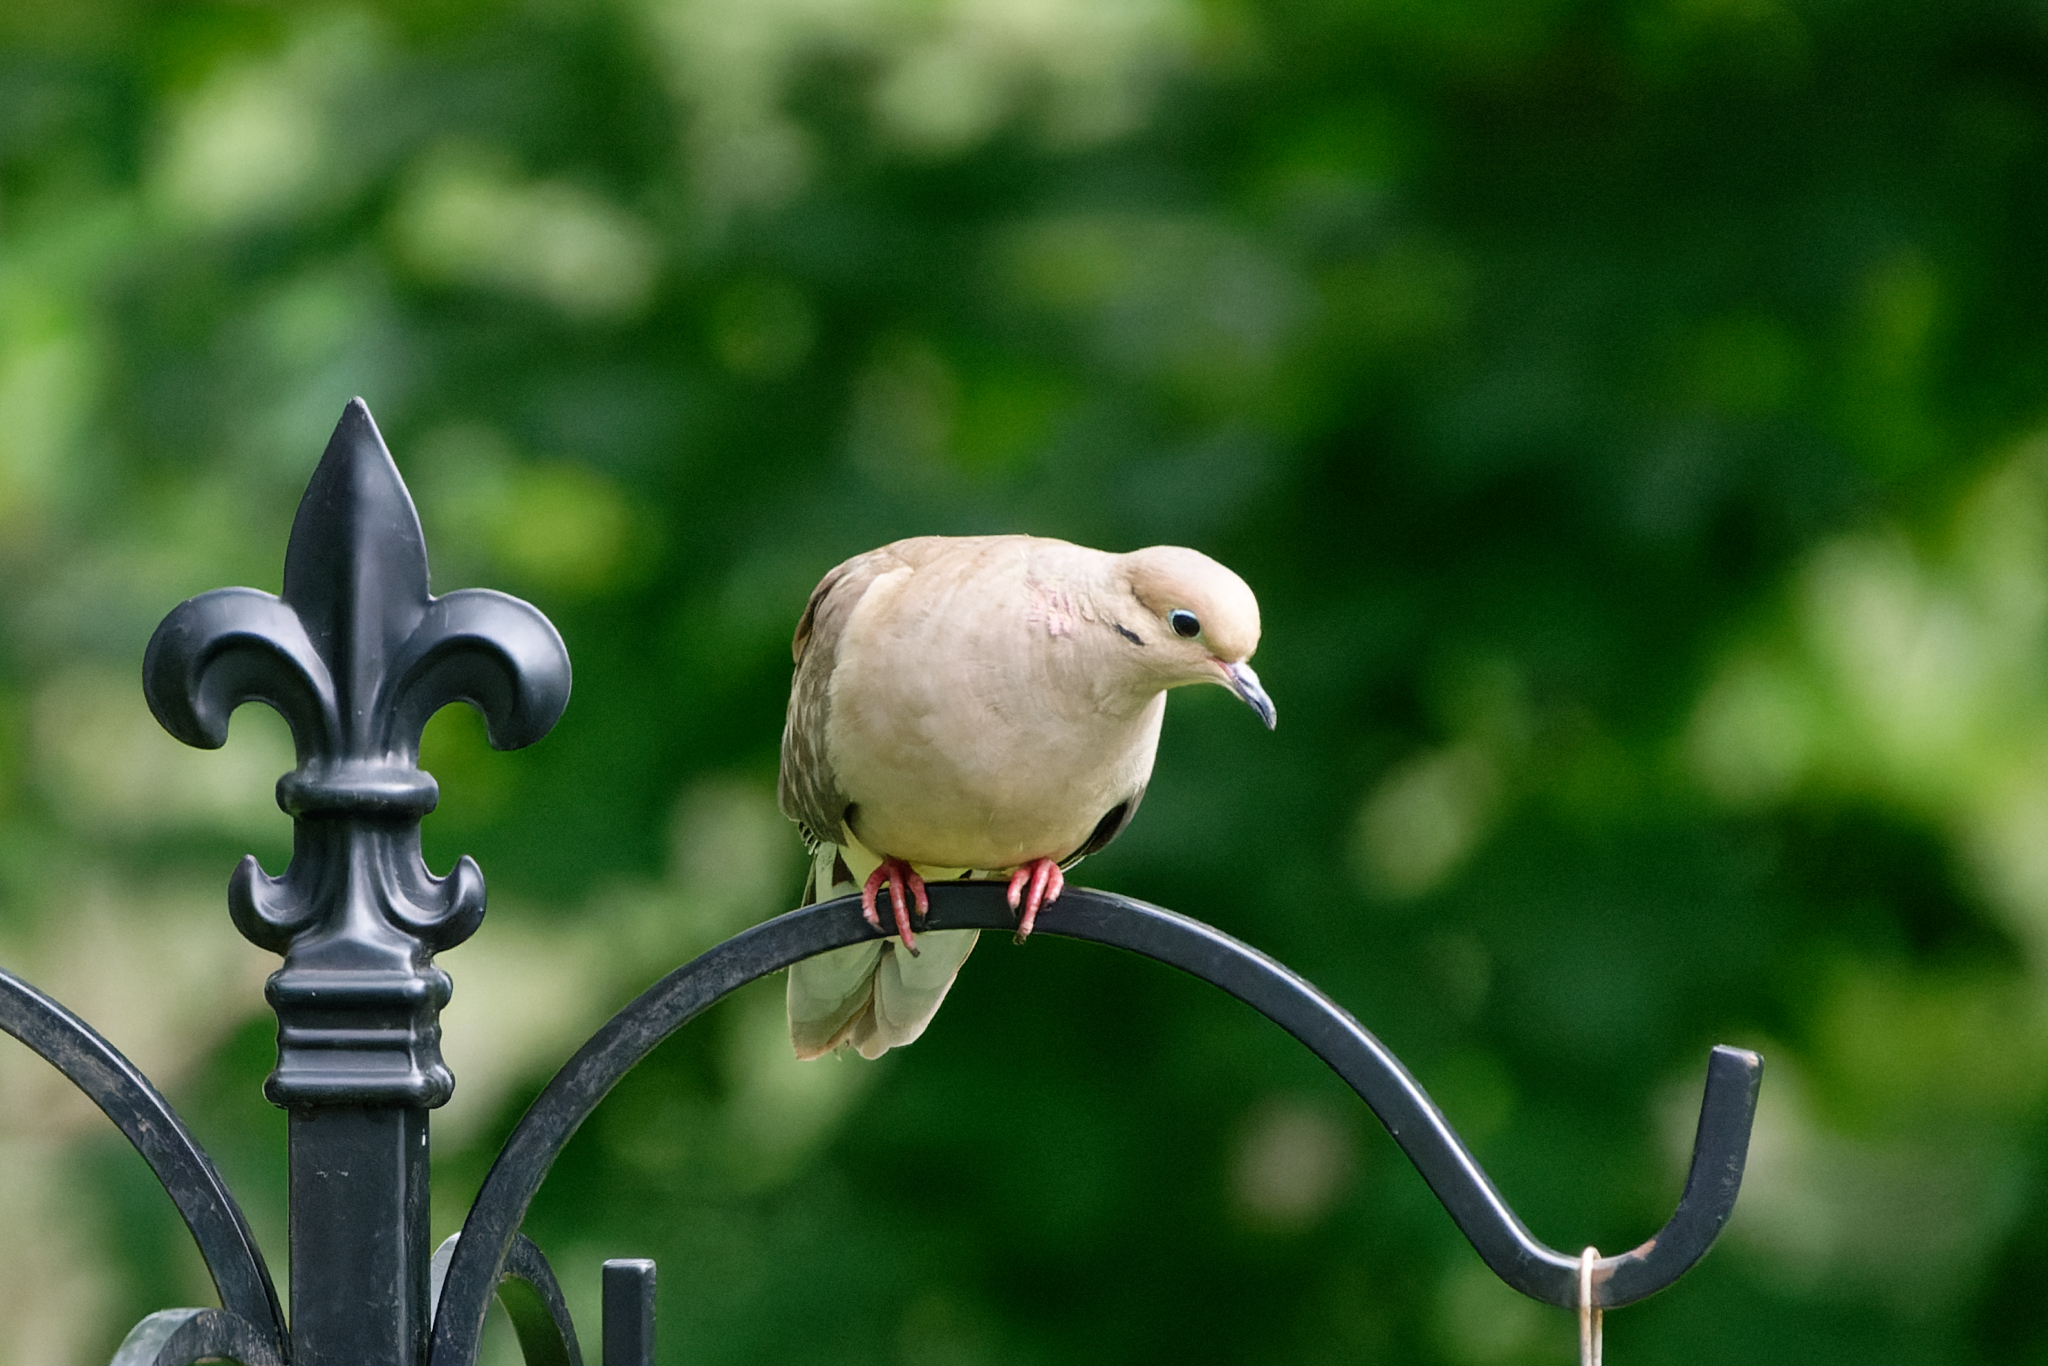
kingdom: Animalia
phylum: Chordata
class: Aves
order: Columbiformes
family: Columbidae
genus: Zenaida
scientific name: Zenaida macroura
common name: Mourning dove
